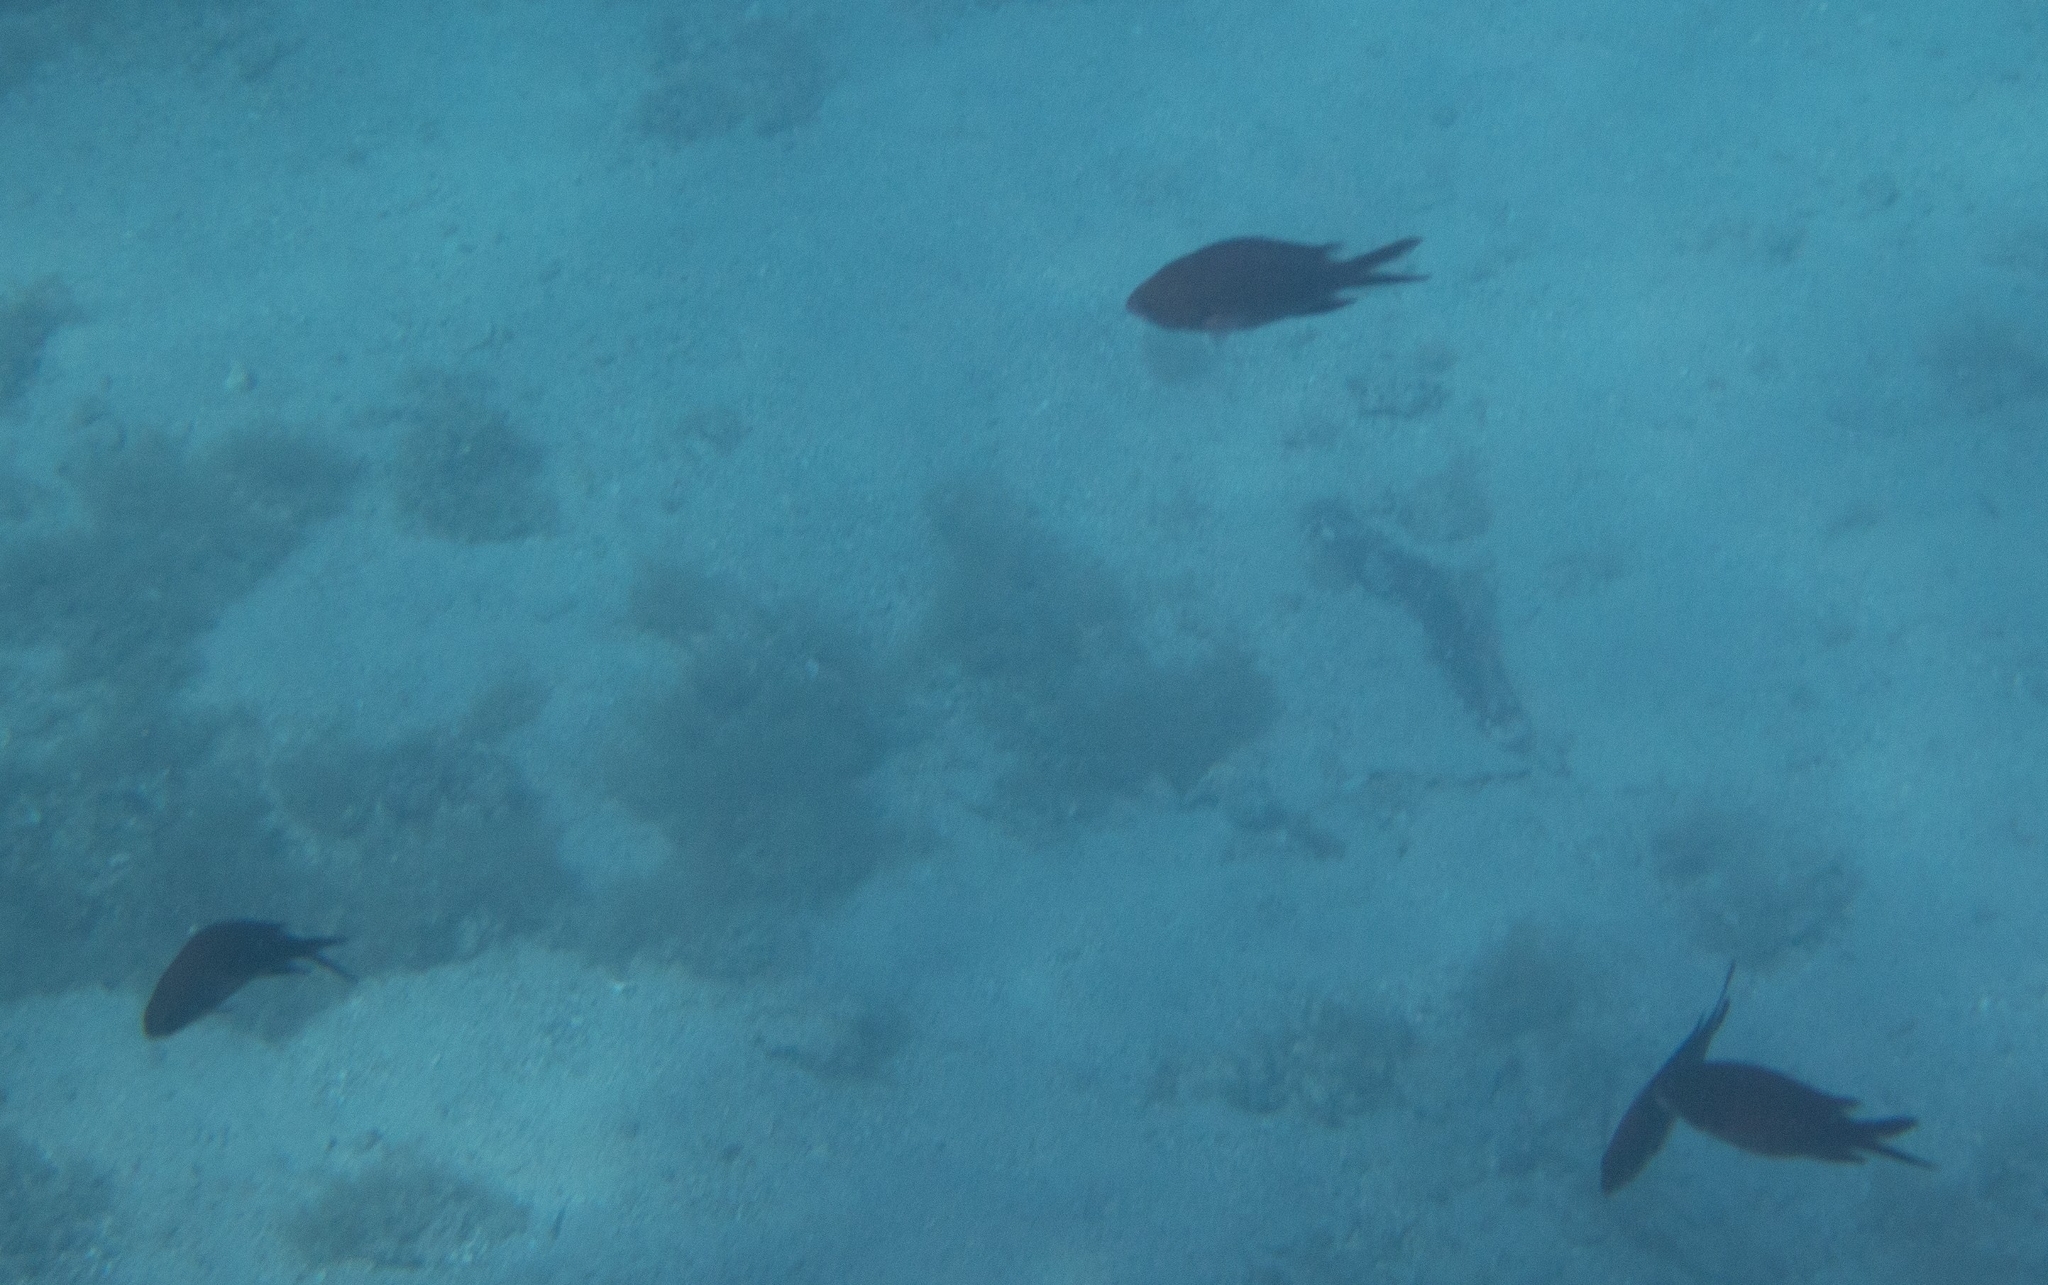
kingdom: Animalia
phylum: Chordata
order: Perciformes
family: Pomacentridae
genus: Chromis
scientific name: Chromis chromis
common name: Damselfish
